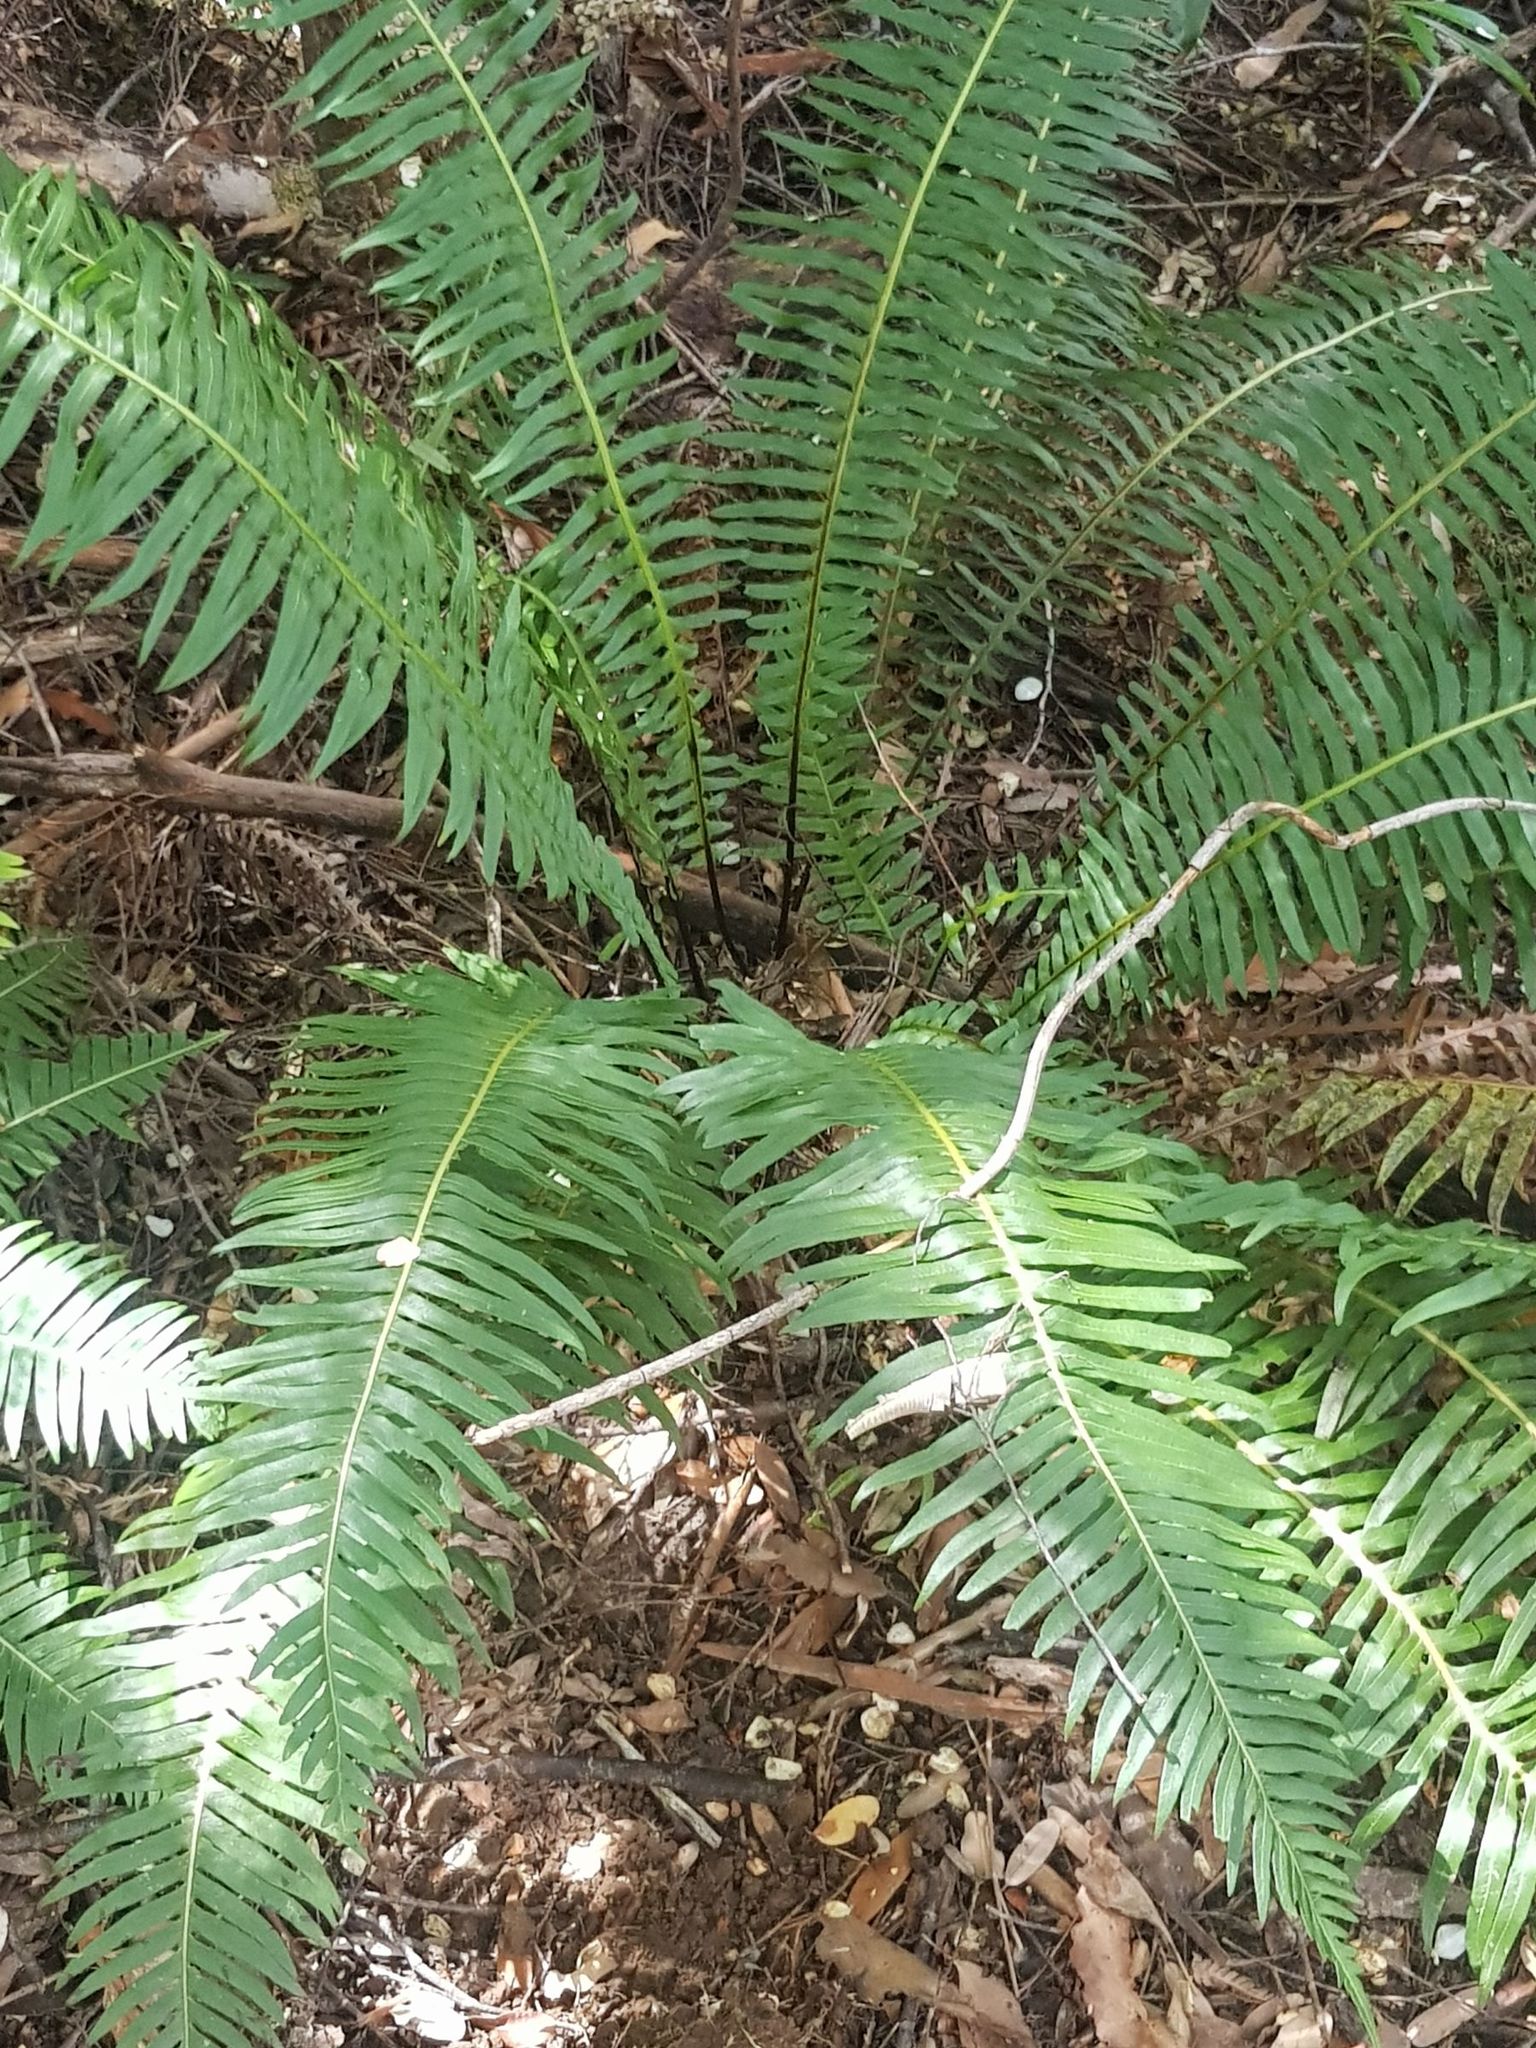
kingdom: Plantae
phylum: Tracheophyta
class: Polypodiopsida
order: Polypodiales
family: Blechnaceae
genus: Lomaria
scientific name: Lomaria nuda
